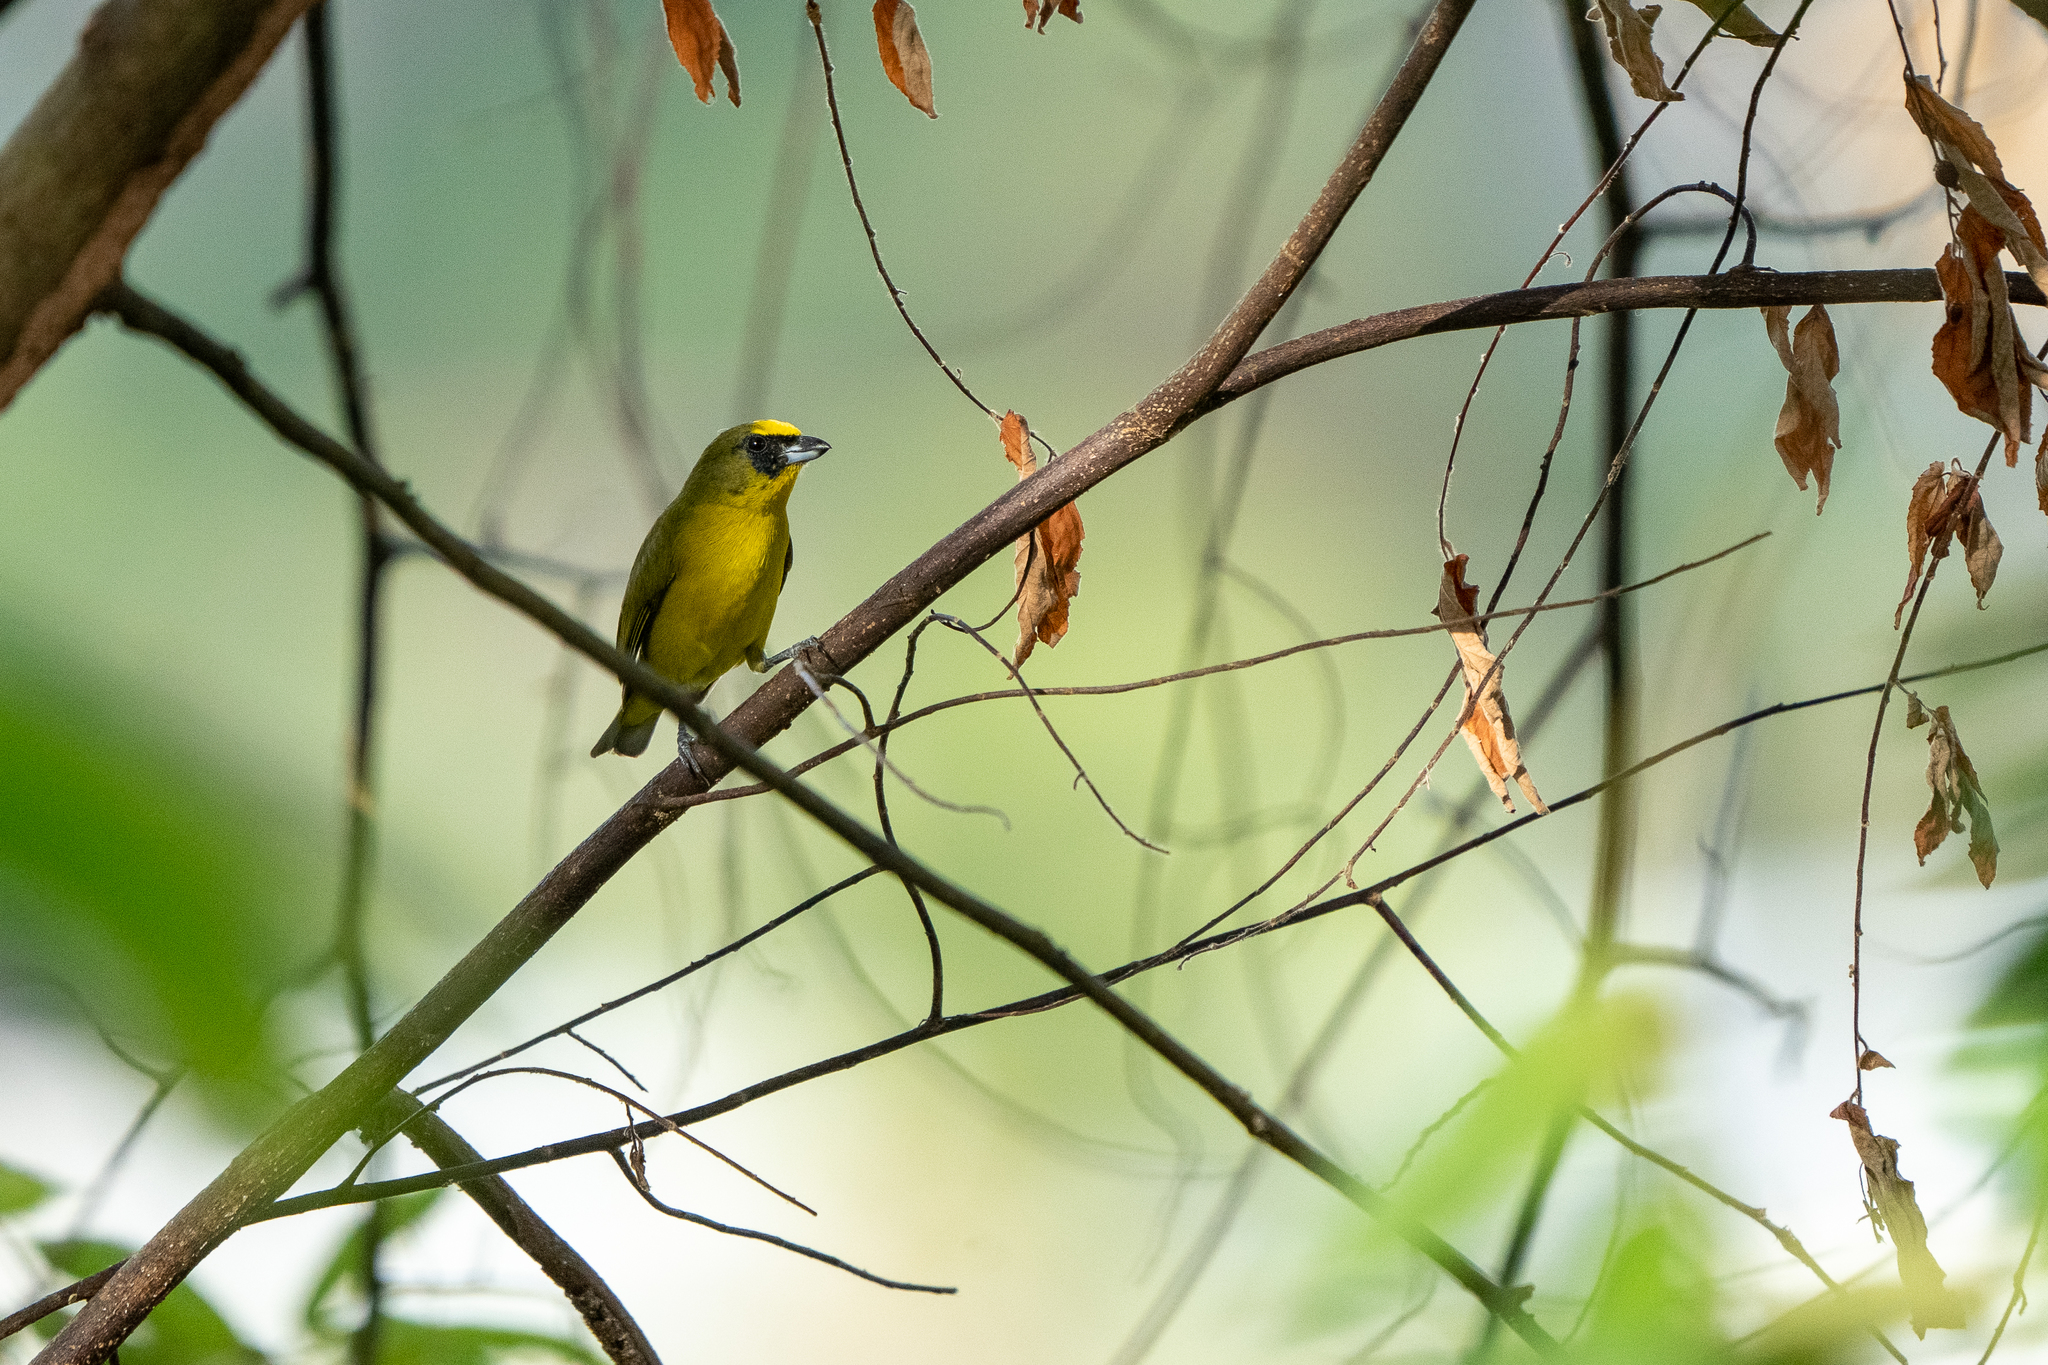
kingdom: Animalia
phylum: Chordata
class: Aves
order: Passeriformes
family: Fringillidae
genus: Euphonia
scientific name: Euphonia laniirostris
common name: Thick-billed euphonia
